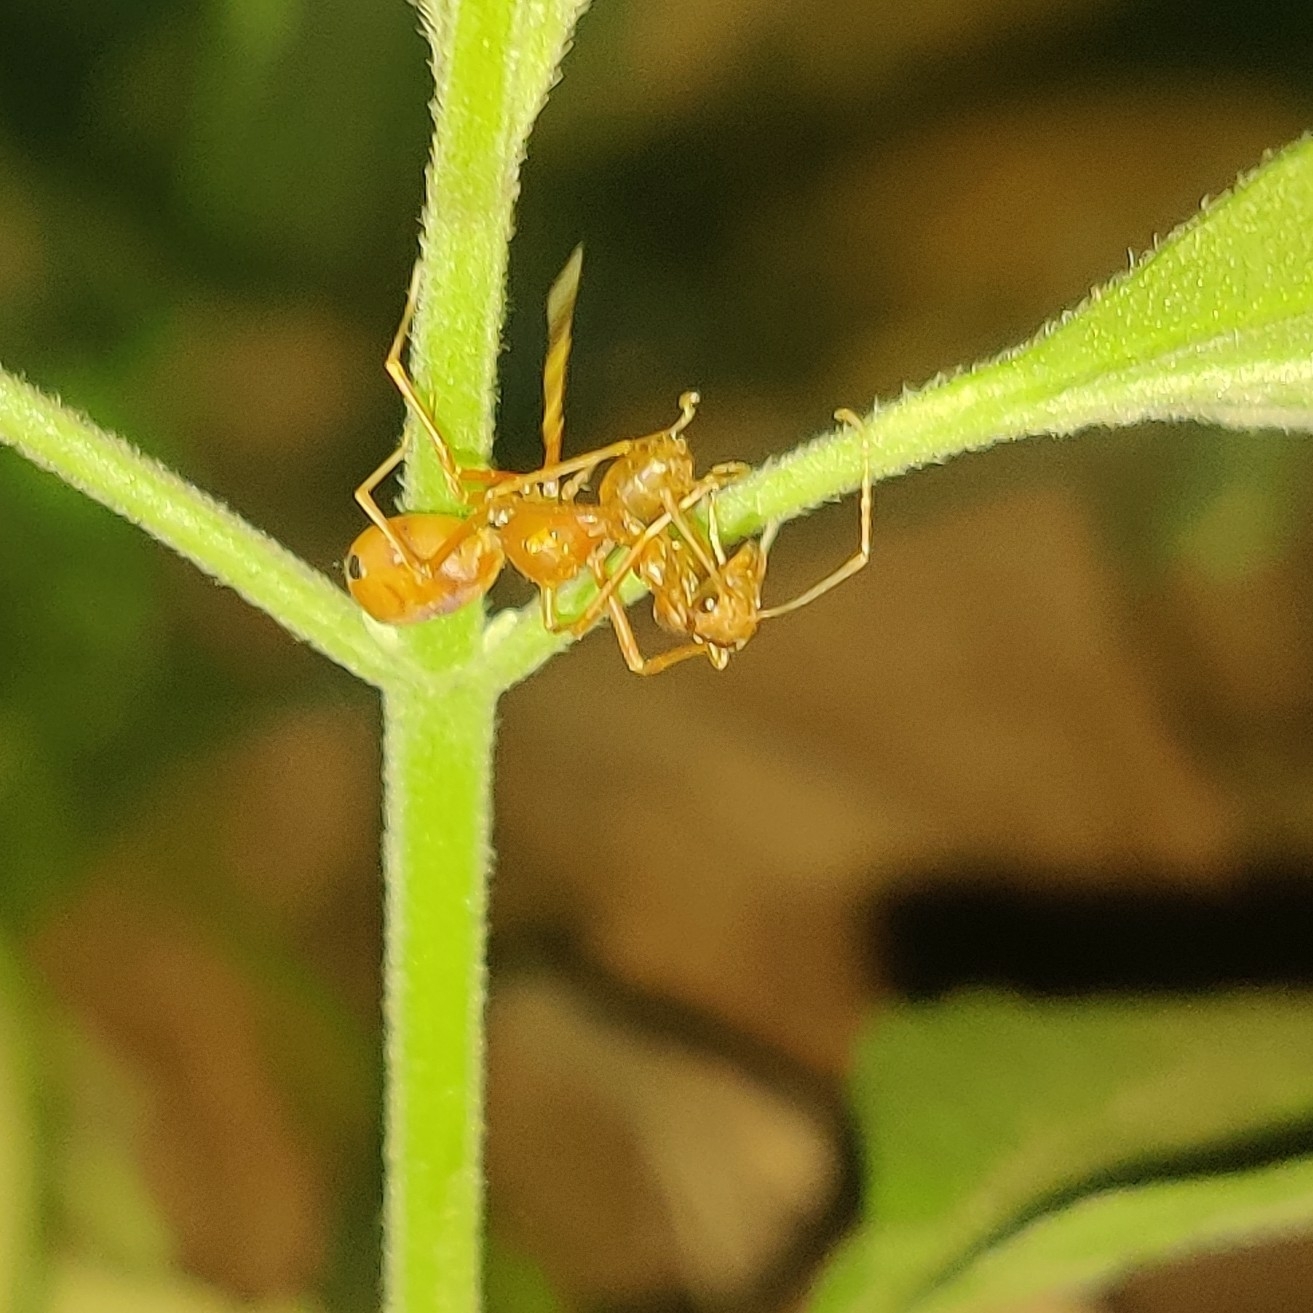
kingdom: Animalia
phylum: Arthropoda
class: Insecta
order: Hymenoptera
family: Formicidae
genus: Oecophylla
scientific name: Oecophylla smaragdina
